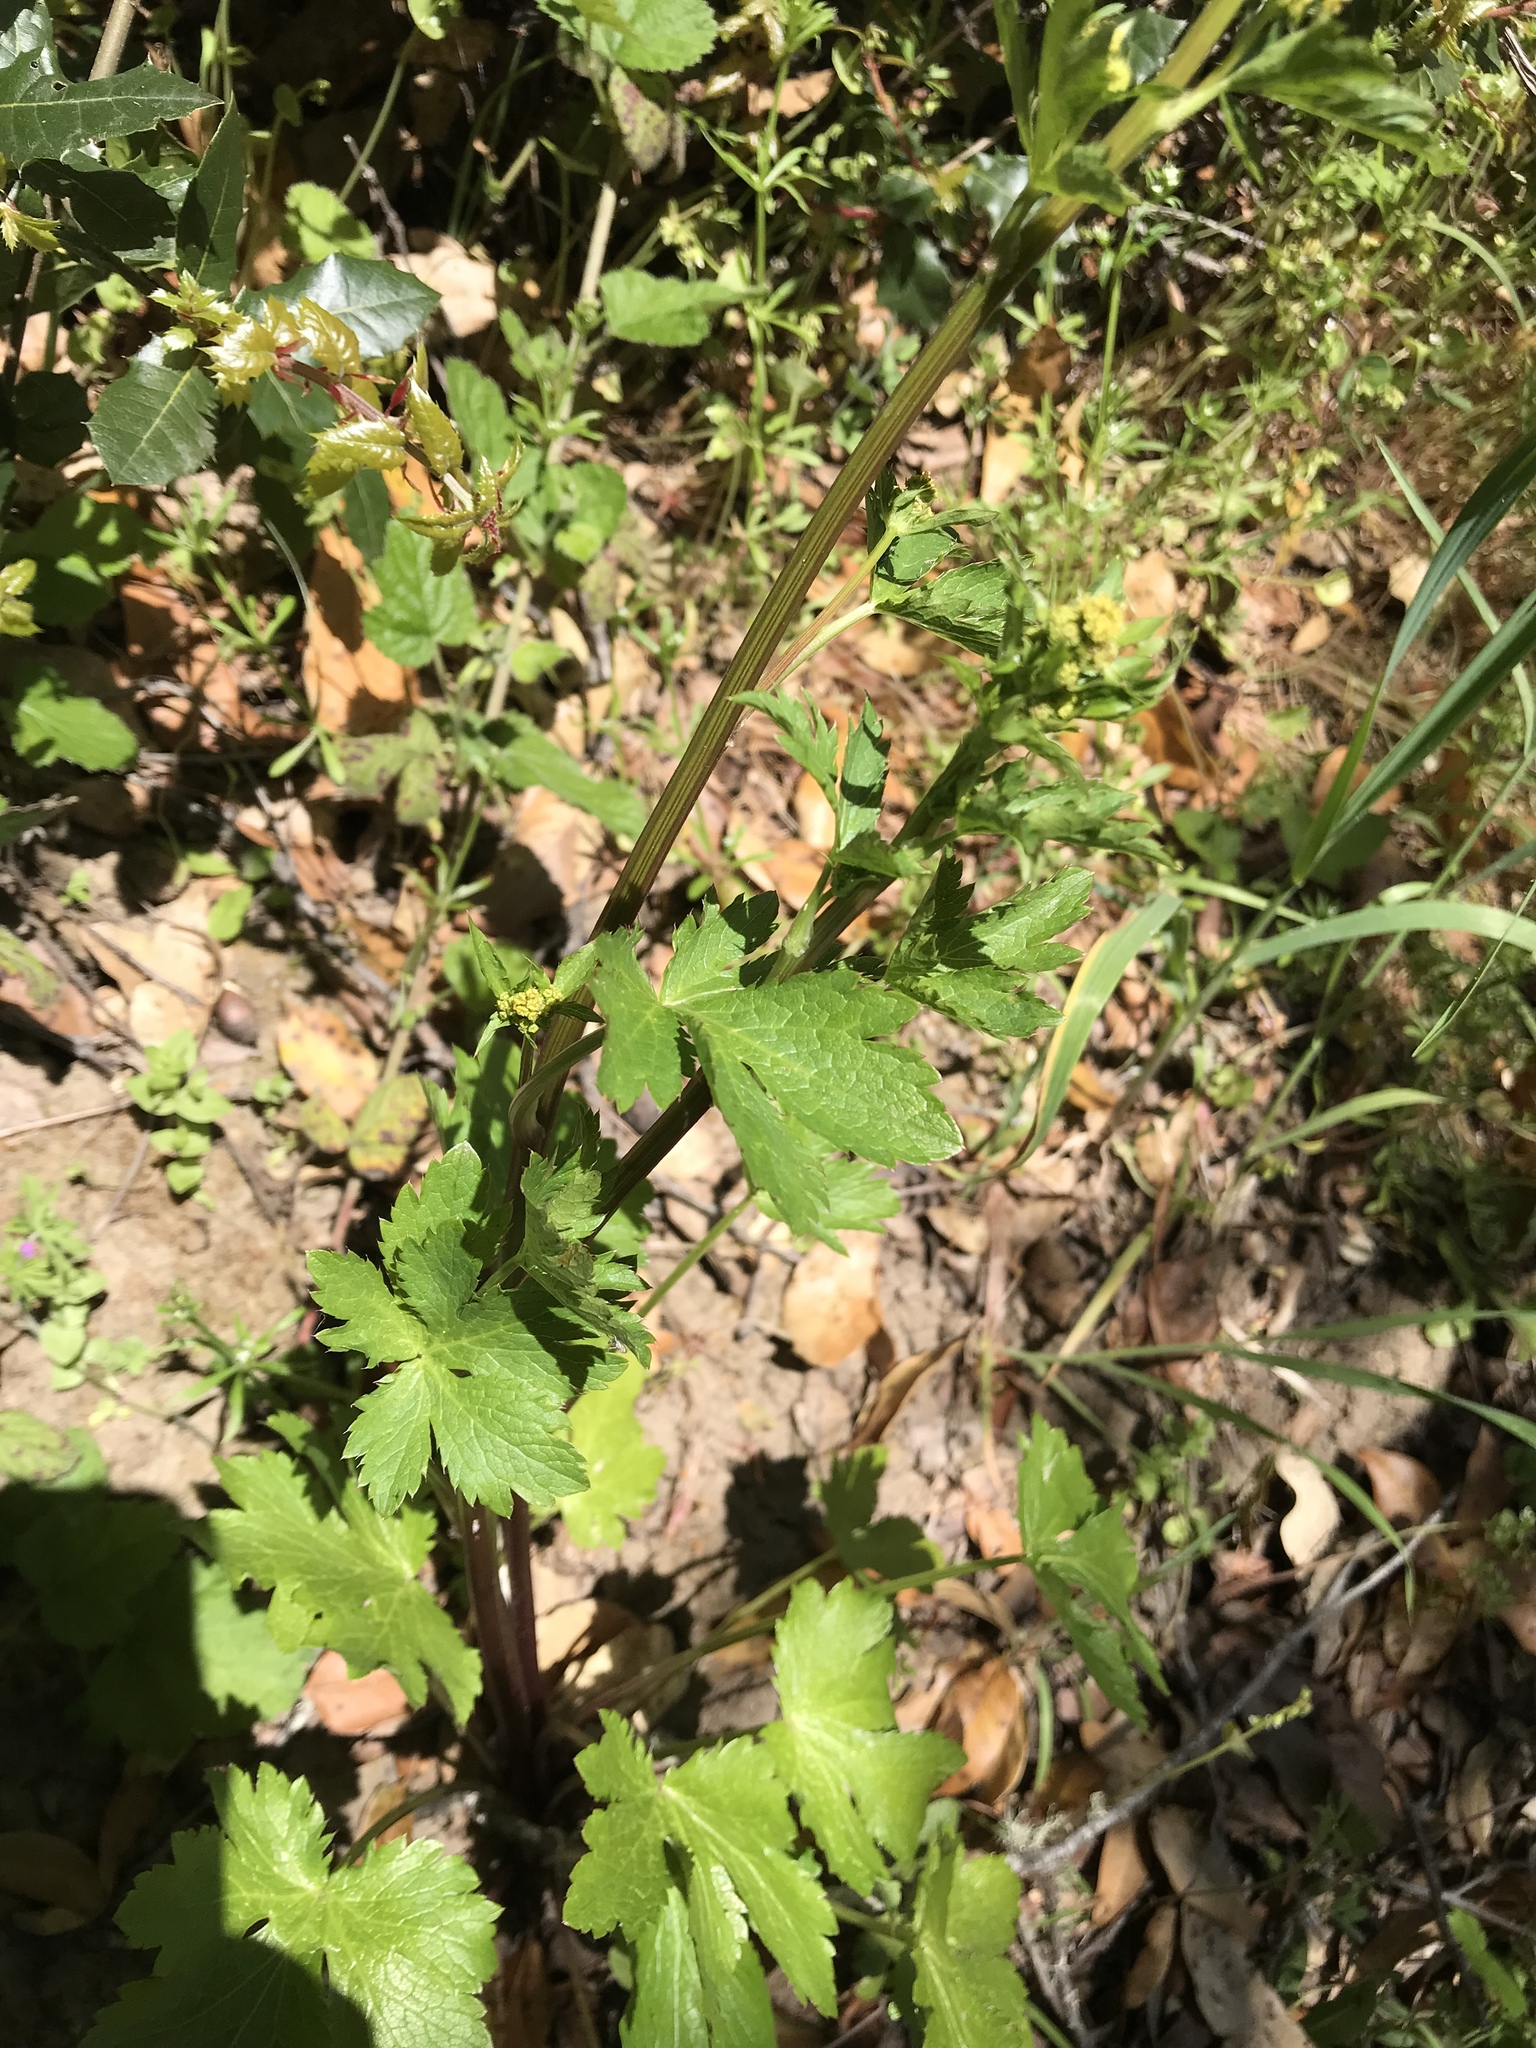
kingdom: Plantae
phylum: Tracheophyta
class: Magnoliopsida
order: Apiales
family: Apiaceae
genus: Sanicula
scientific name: Sanicula crassicaulis
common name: Western snakeroot
